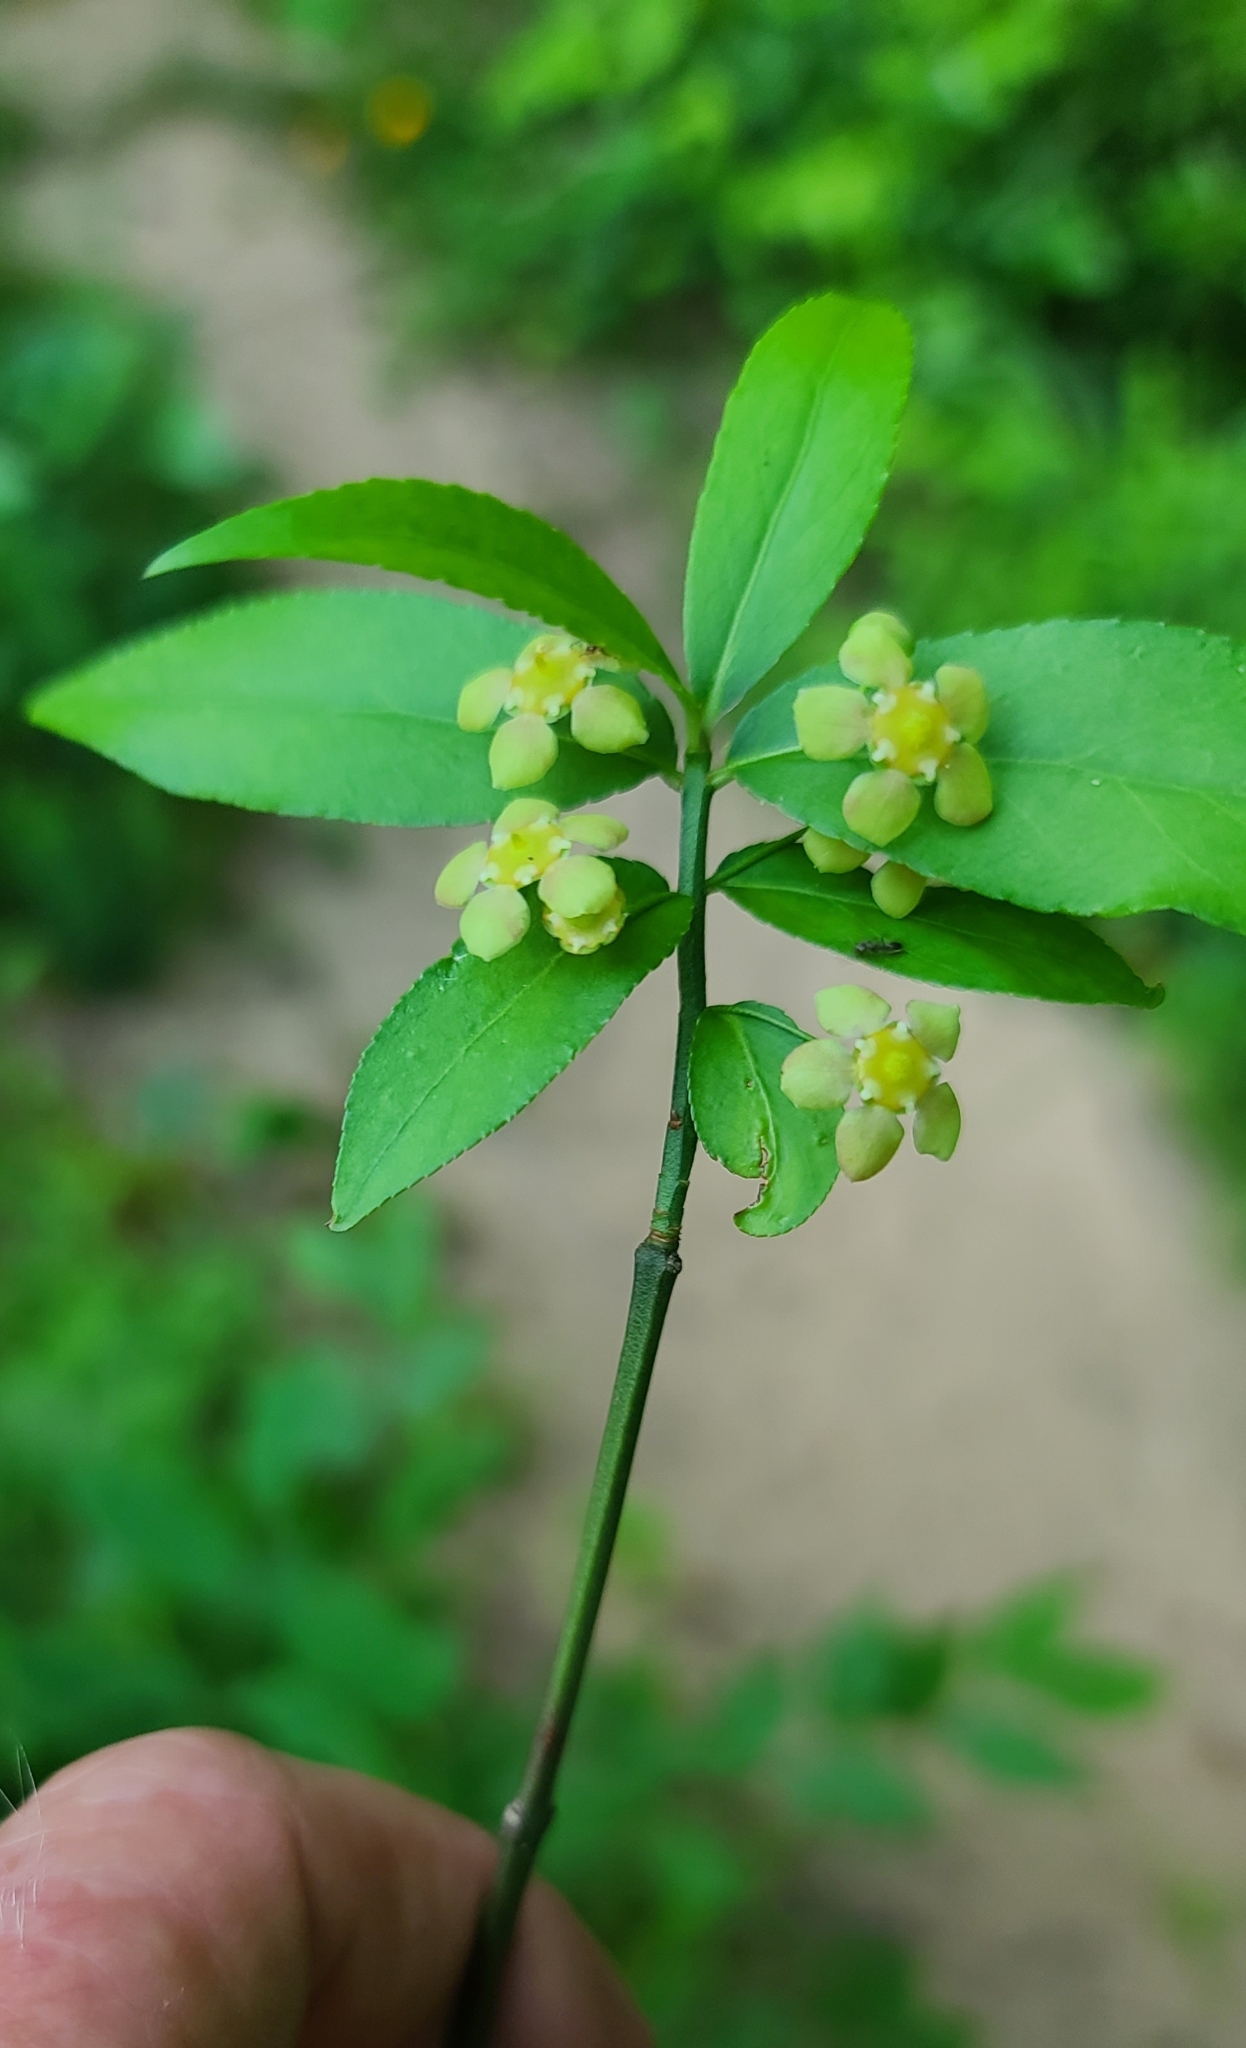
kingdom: Plantae
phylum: Tracheophyta
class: Magnoliopsida
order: Celastrales
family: Celastraceae
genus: Euonymus
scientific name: Euonymus americanus
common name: Bursting-heart
